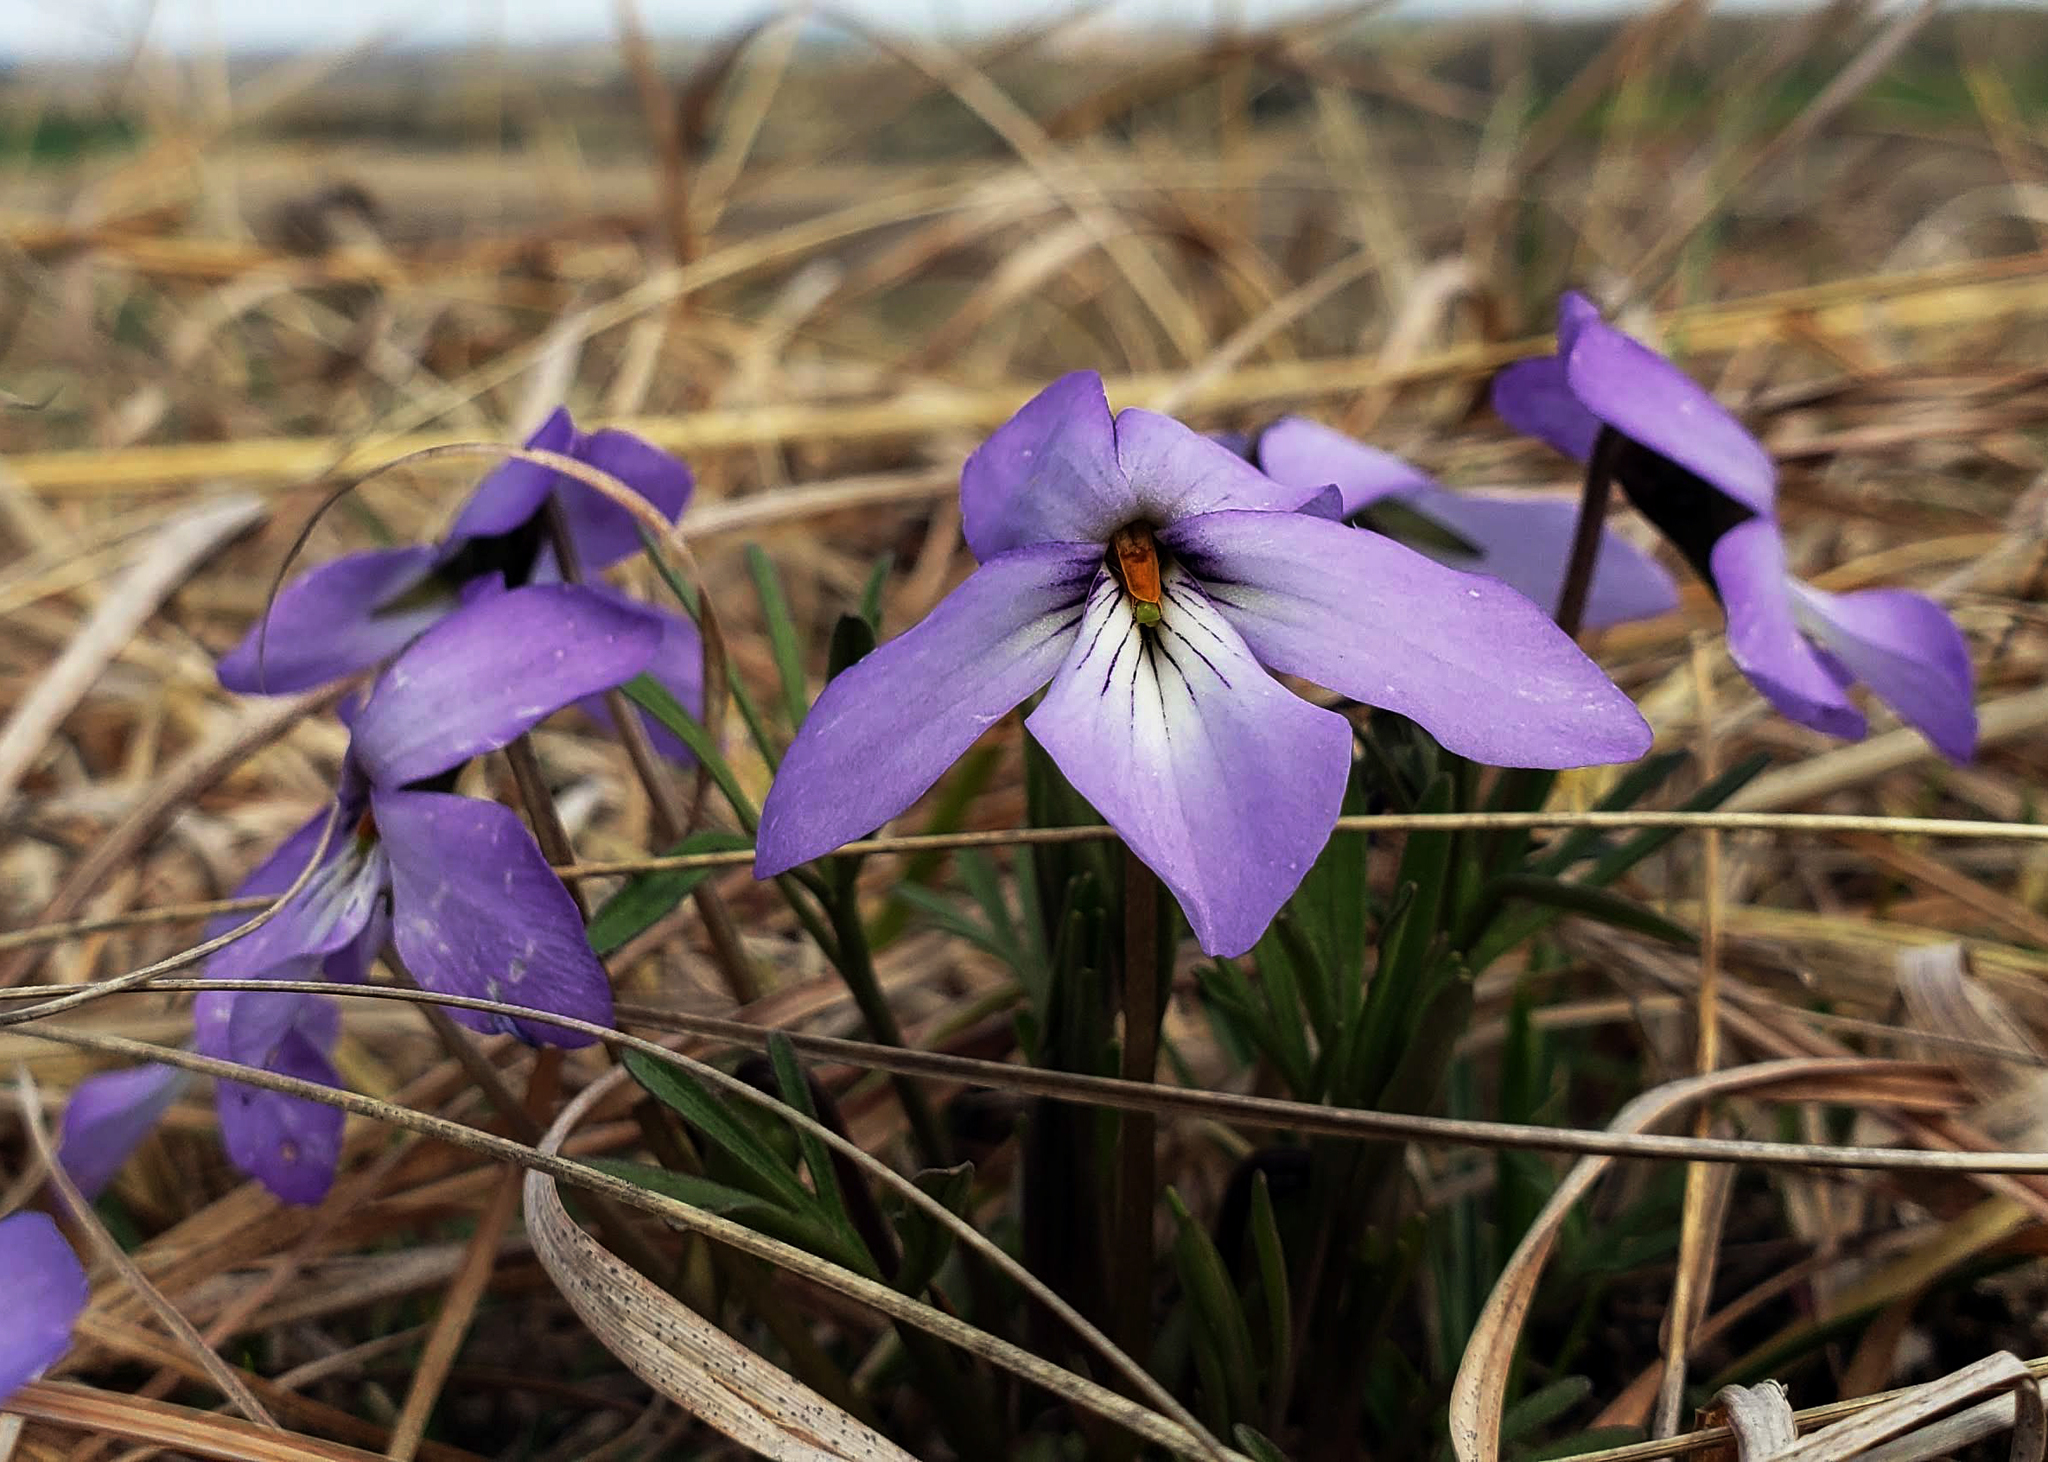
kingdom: Plantae
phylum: Tracheophyta
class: Magnoliopsida
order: Malpighiales
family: Violaceae
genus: Viola
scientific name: Viola pedata
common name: Pansy violet
